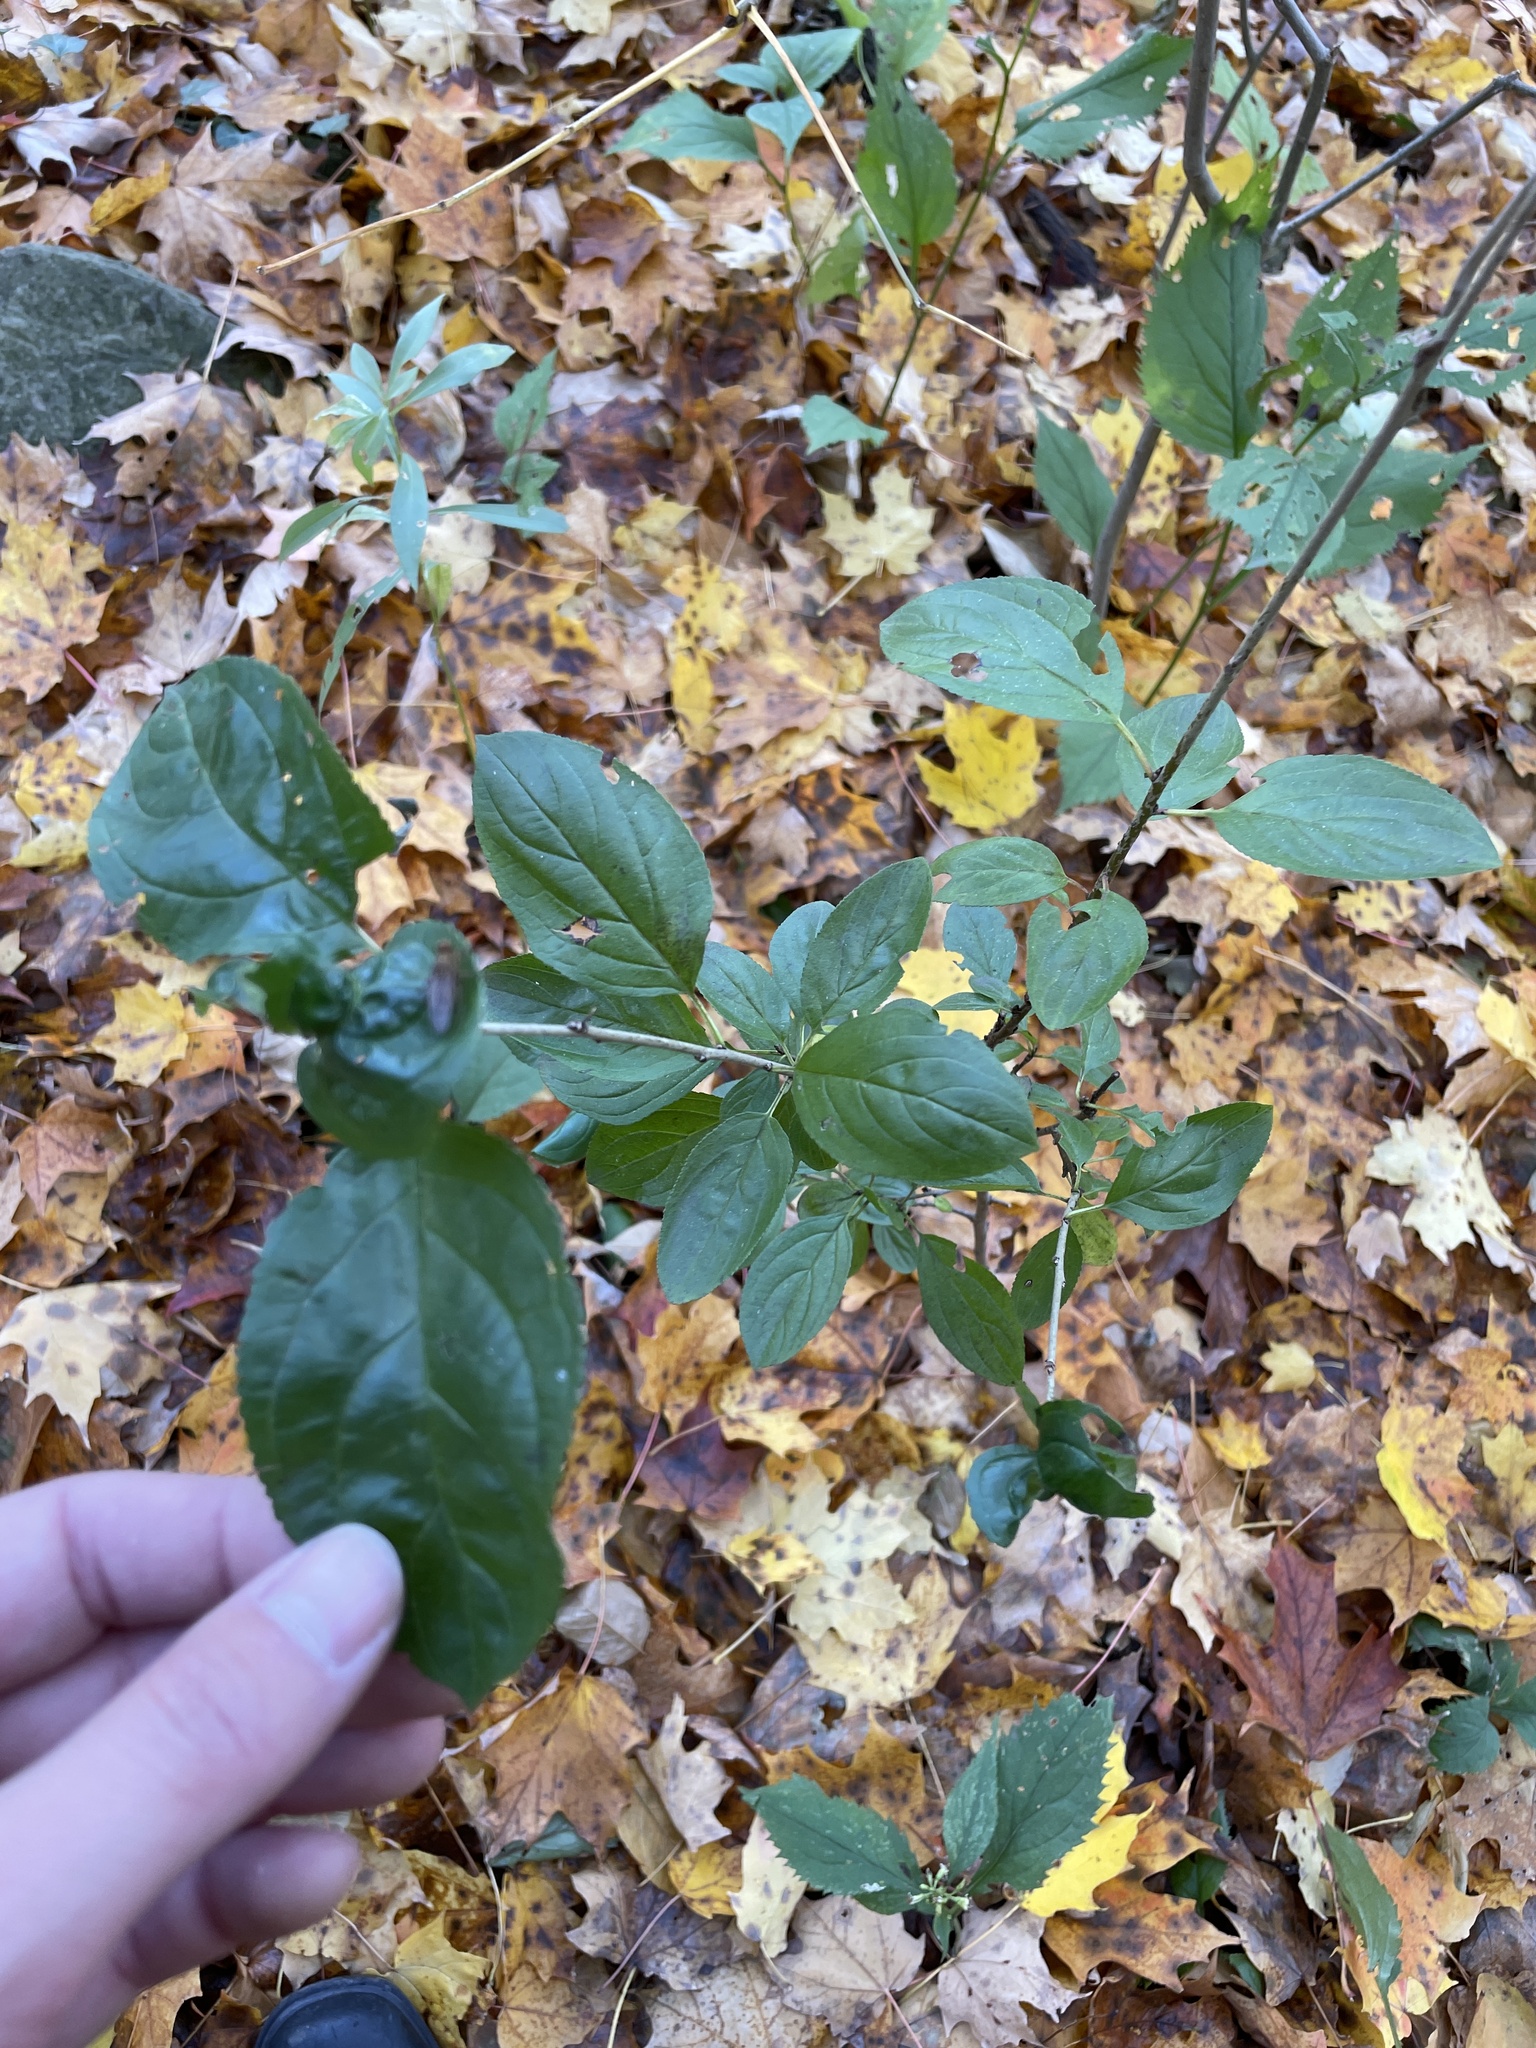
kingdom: Plantae
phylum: Tracheophyta
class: Magnoliopsida
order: Rosales
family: Rhamnaceae
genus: Rhamnus
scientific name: Rhamnus cathartica
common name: Common buckthorn
